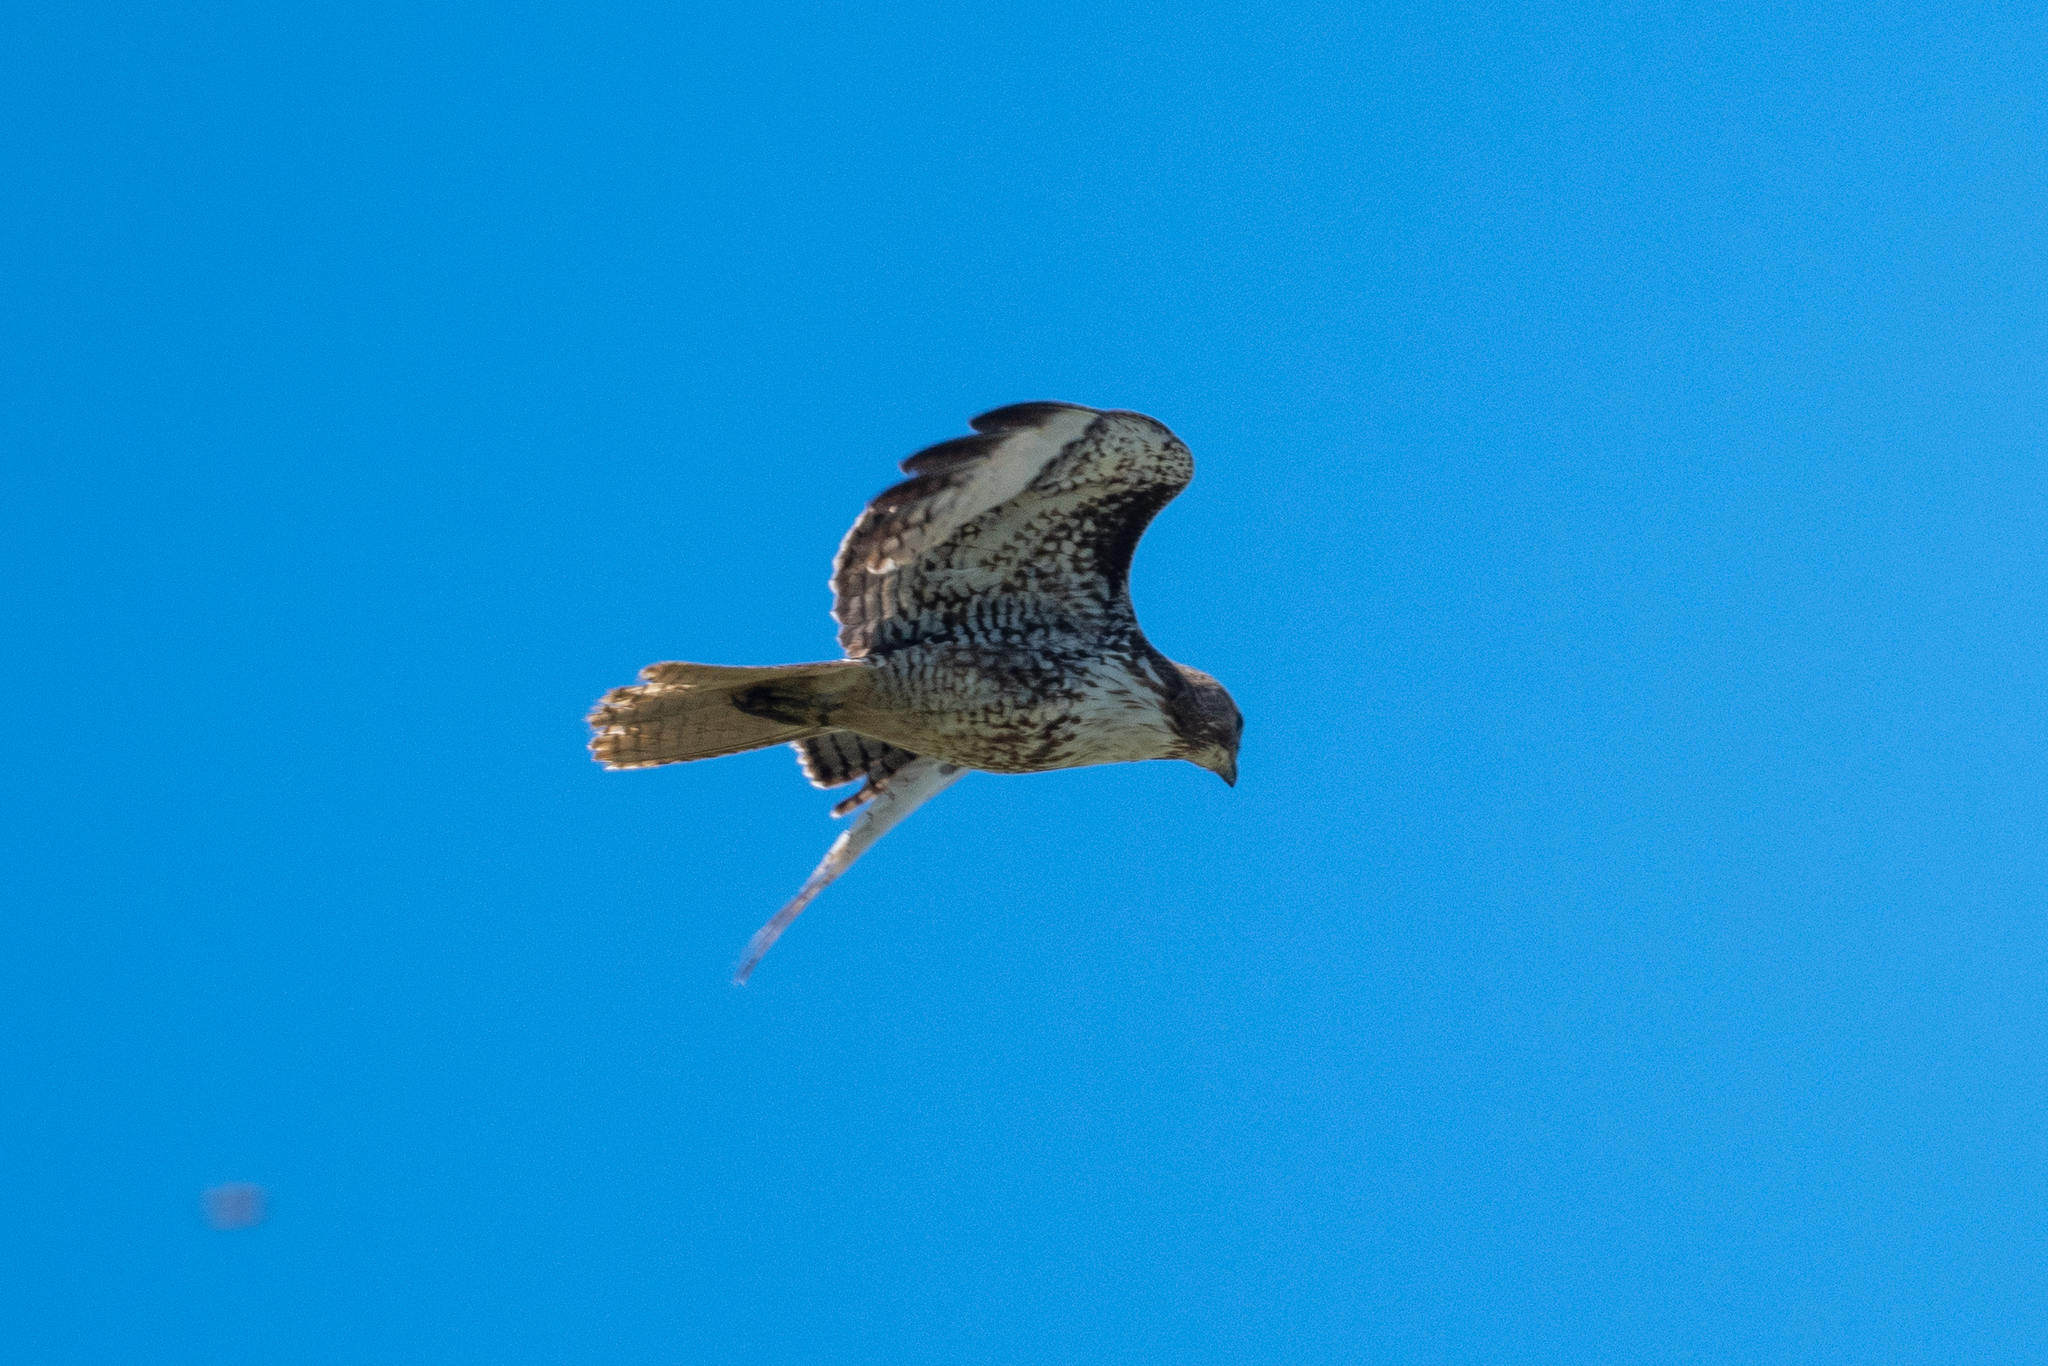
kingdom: Animalia
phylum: Chordata
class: Aves
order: Accipitriformes
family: Accipitridae
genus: Buteo
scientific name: Buteo jamaicensis
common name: Red-tailed hawk
